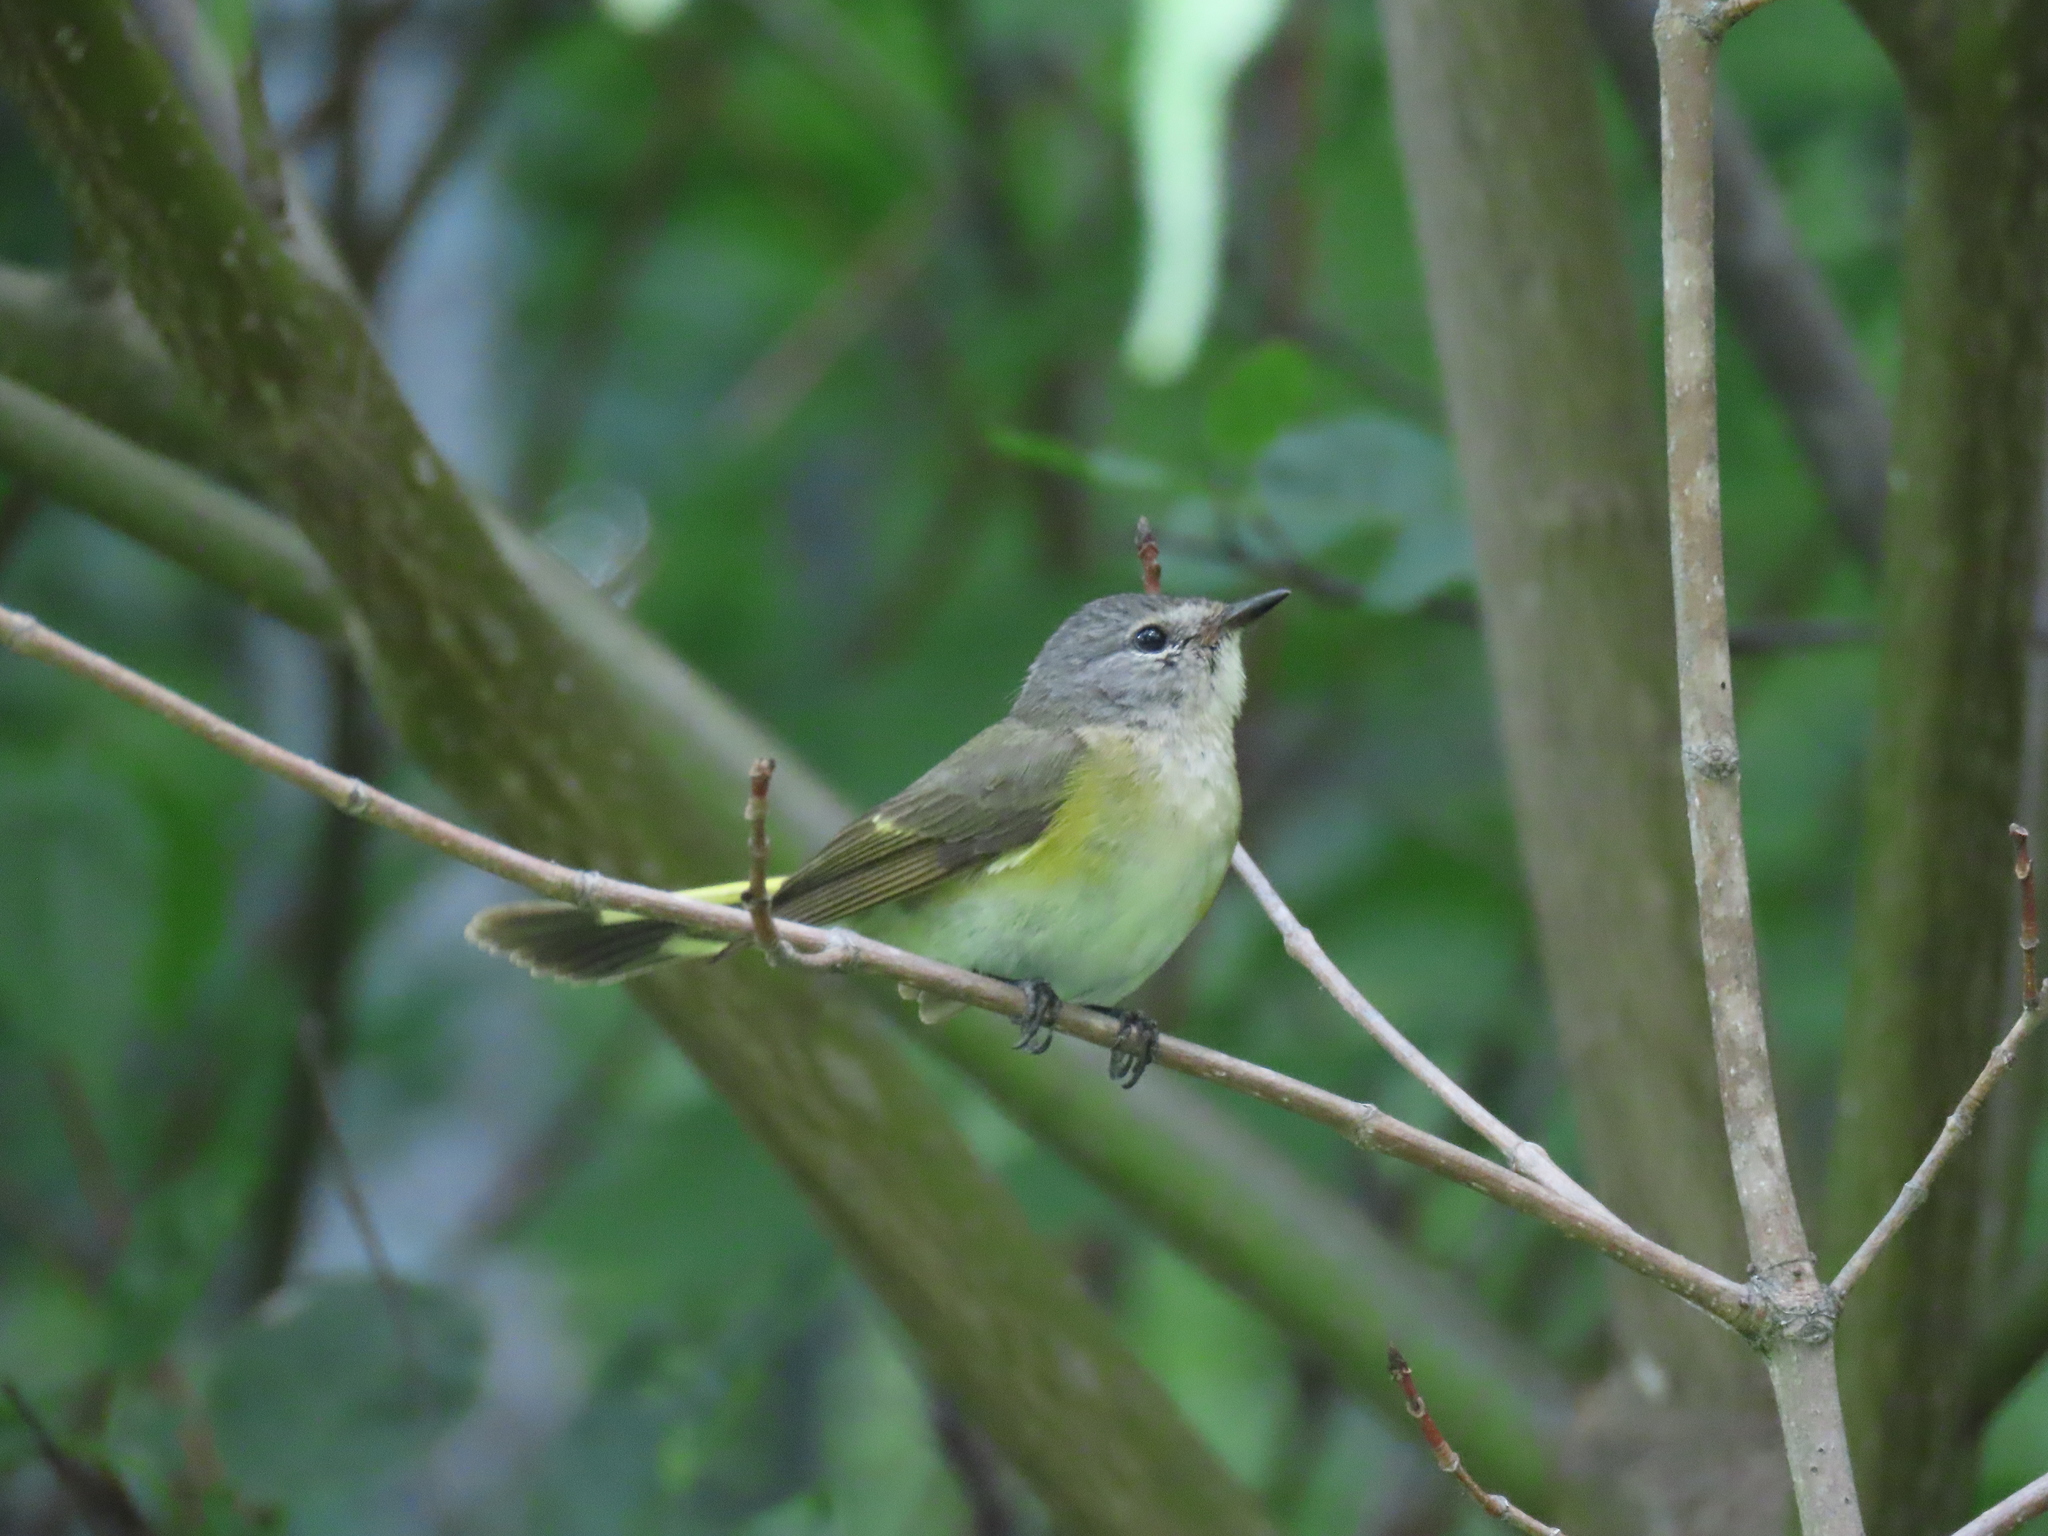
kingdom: Animalia
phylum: Chordata
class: Aves
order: Passeriformes
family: Parulidae
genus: Setophaga
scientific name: Setophaga ruticilla
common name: American redstart
